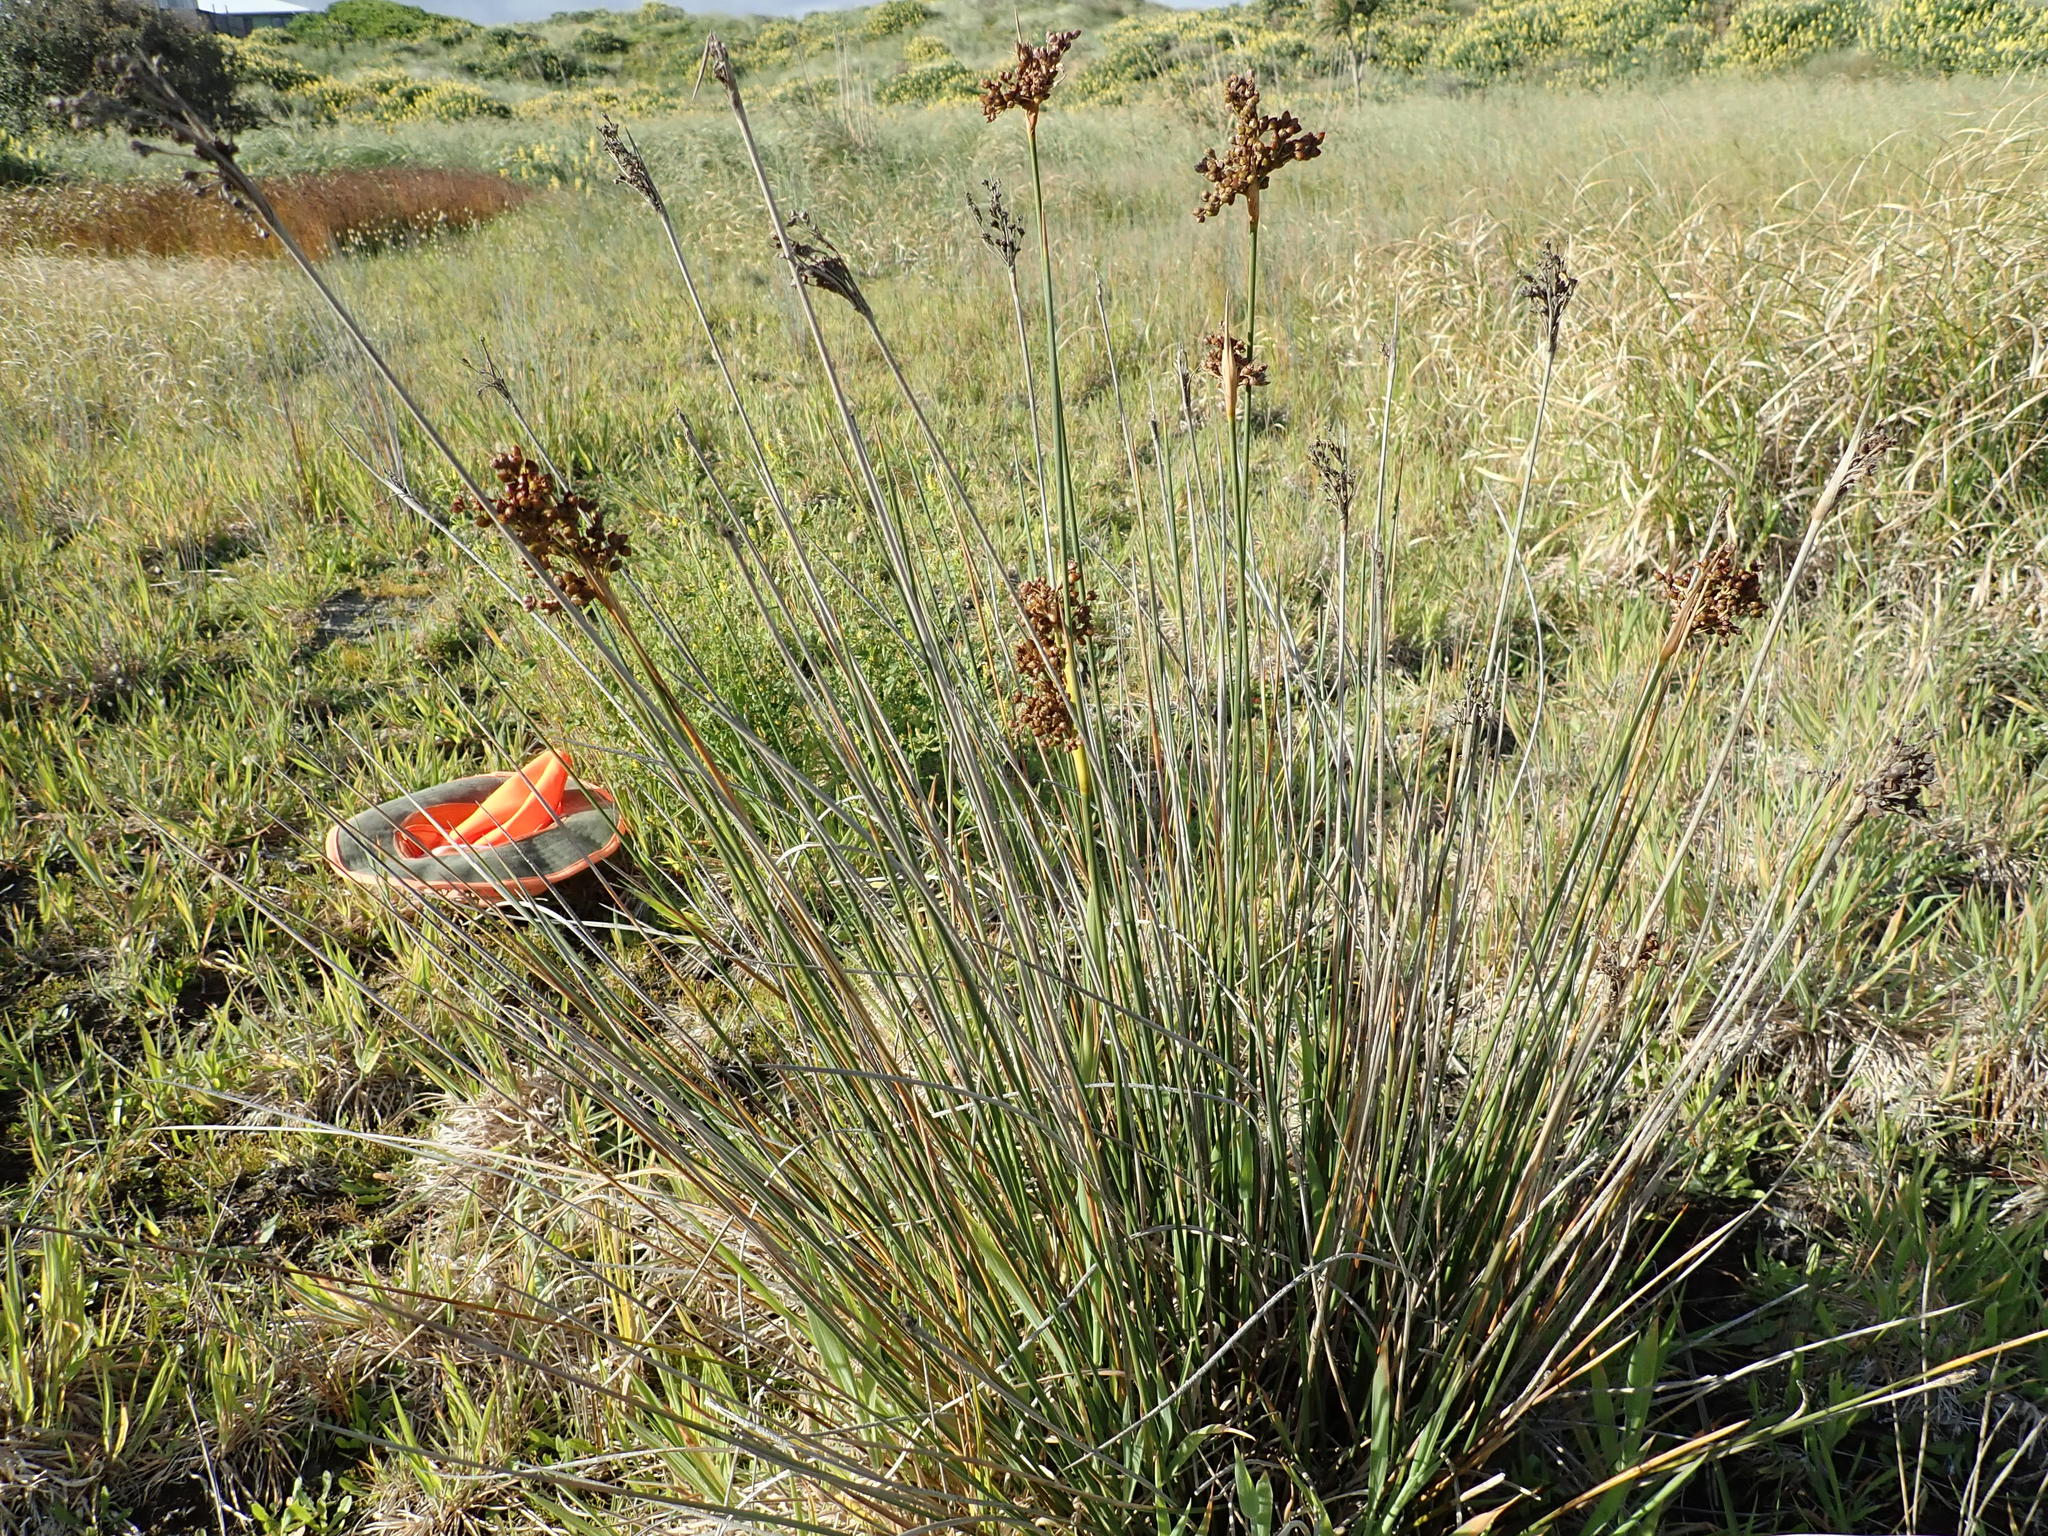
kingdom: Plantae
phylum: Tracheophyta
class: Liliopsida
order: Poales
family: Juncaceae
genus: Juncus
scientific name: Juncus acutus
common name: Sharp rush
